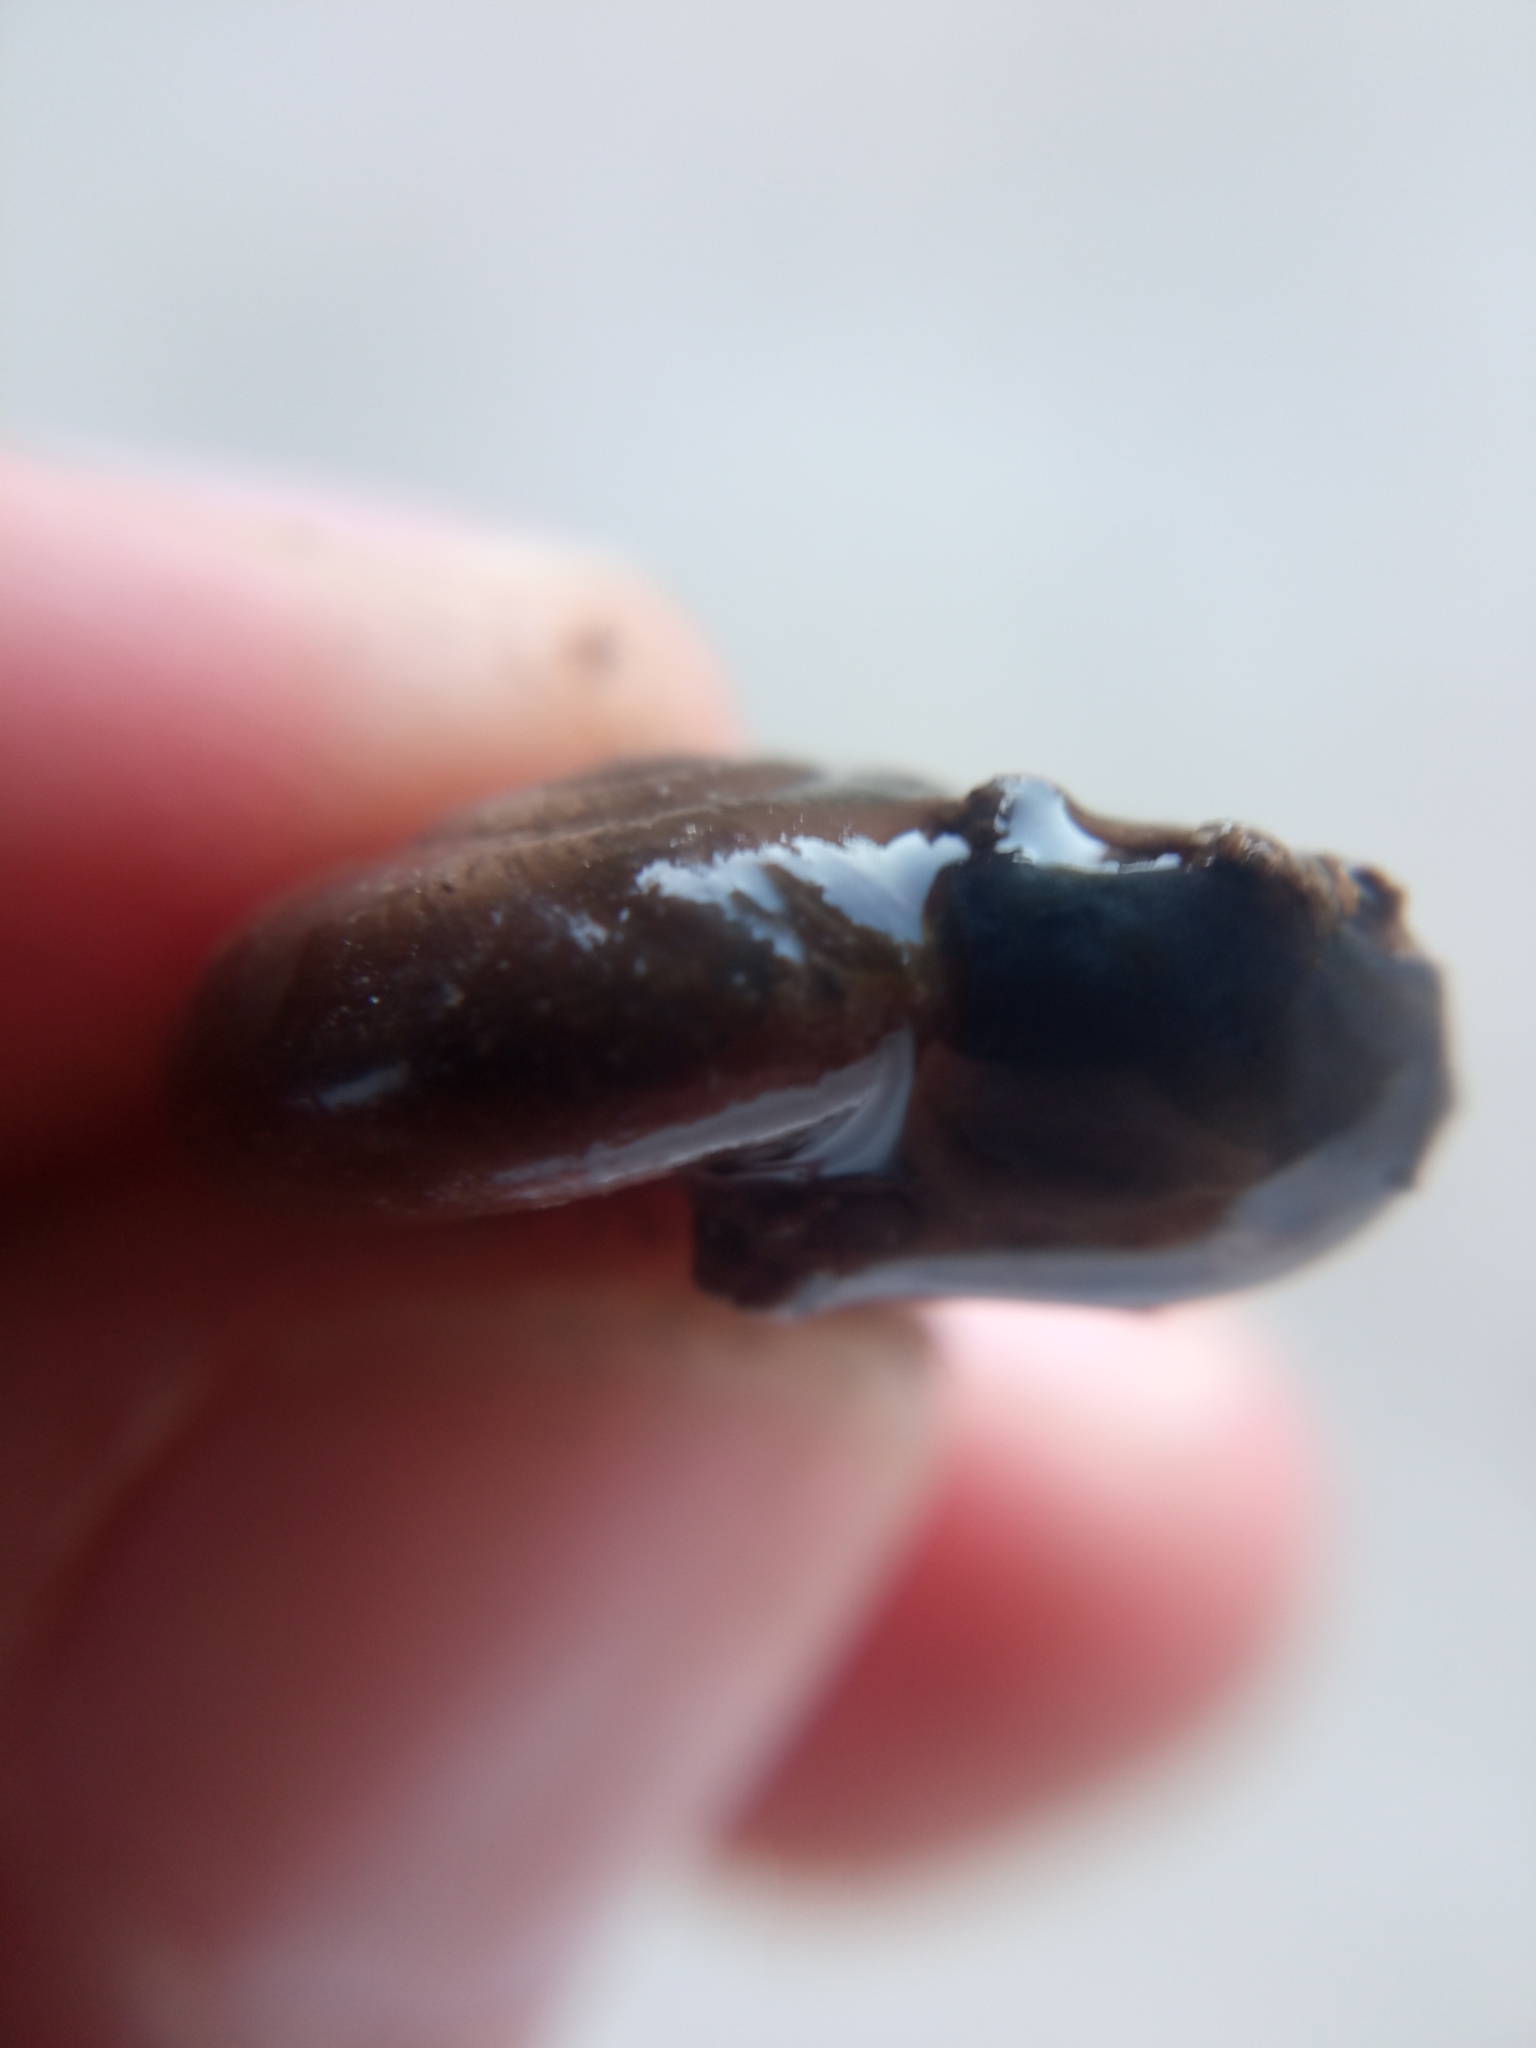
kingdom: Animalia
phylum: Mollusca
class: Gastropoda
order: Stylommatophora
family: Oxychilidae
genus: Oxychilus
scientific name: Oxychilus draparnaudi
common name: Draparnaud's glass snail
